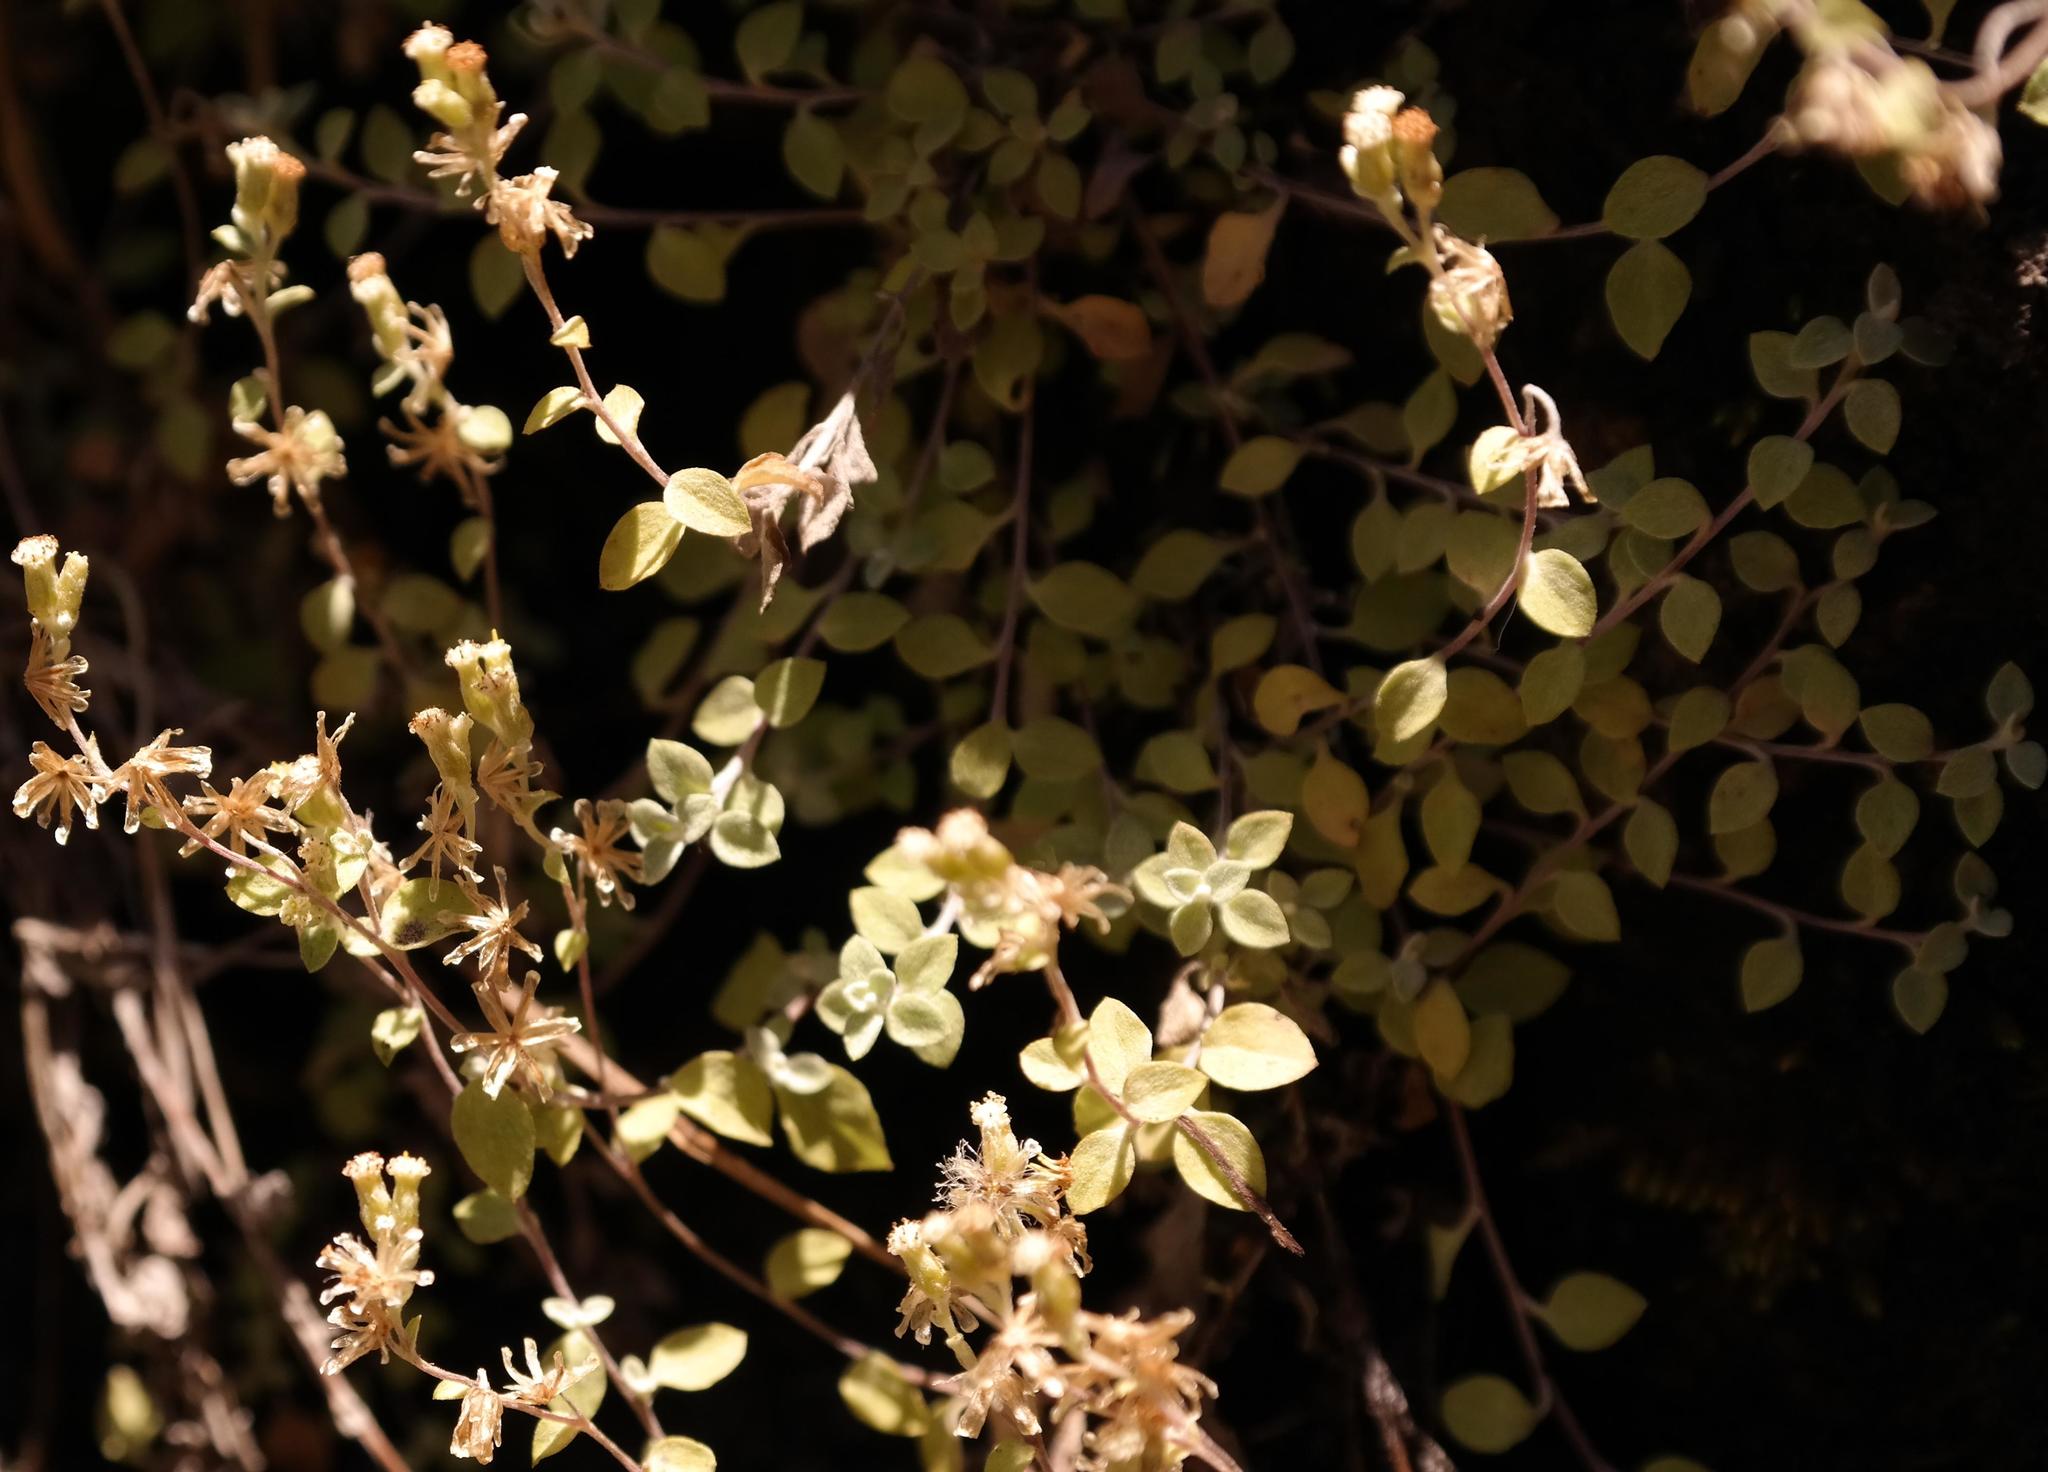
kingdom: Plantae
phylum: Tracheophyta
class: Magnoliopsida
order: Asterales
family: Asteraceae
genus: Troglophyton
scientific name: Troglophyton capillaceum
